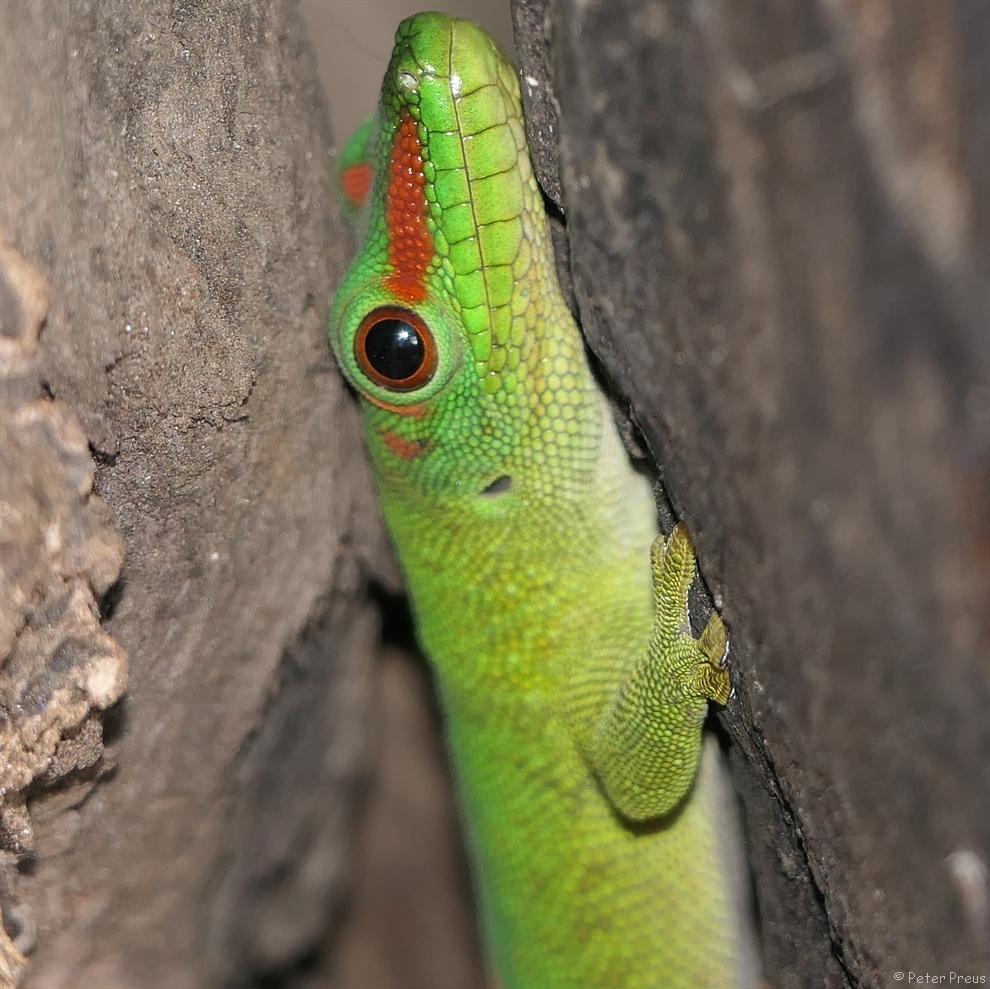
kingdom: Animalia
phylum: Chordata
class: Squamata
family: Gekkonidae
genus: Phelsuma
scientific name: Phelsuma grandis
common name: Madagascar giant day gecko
